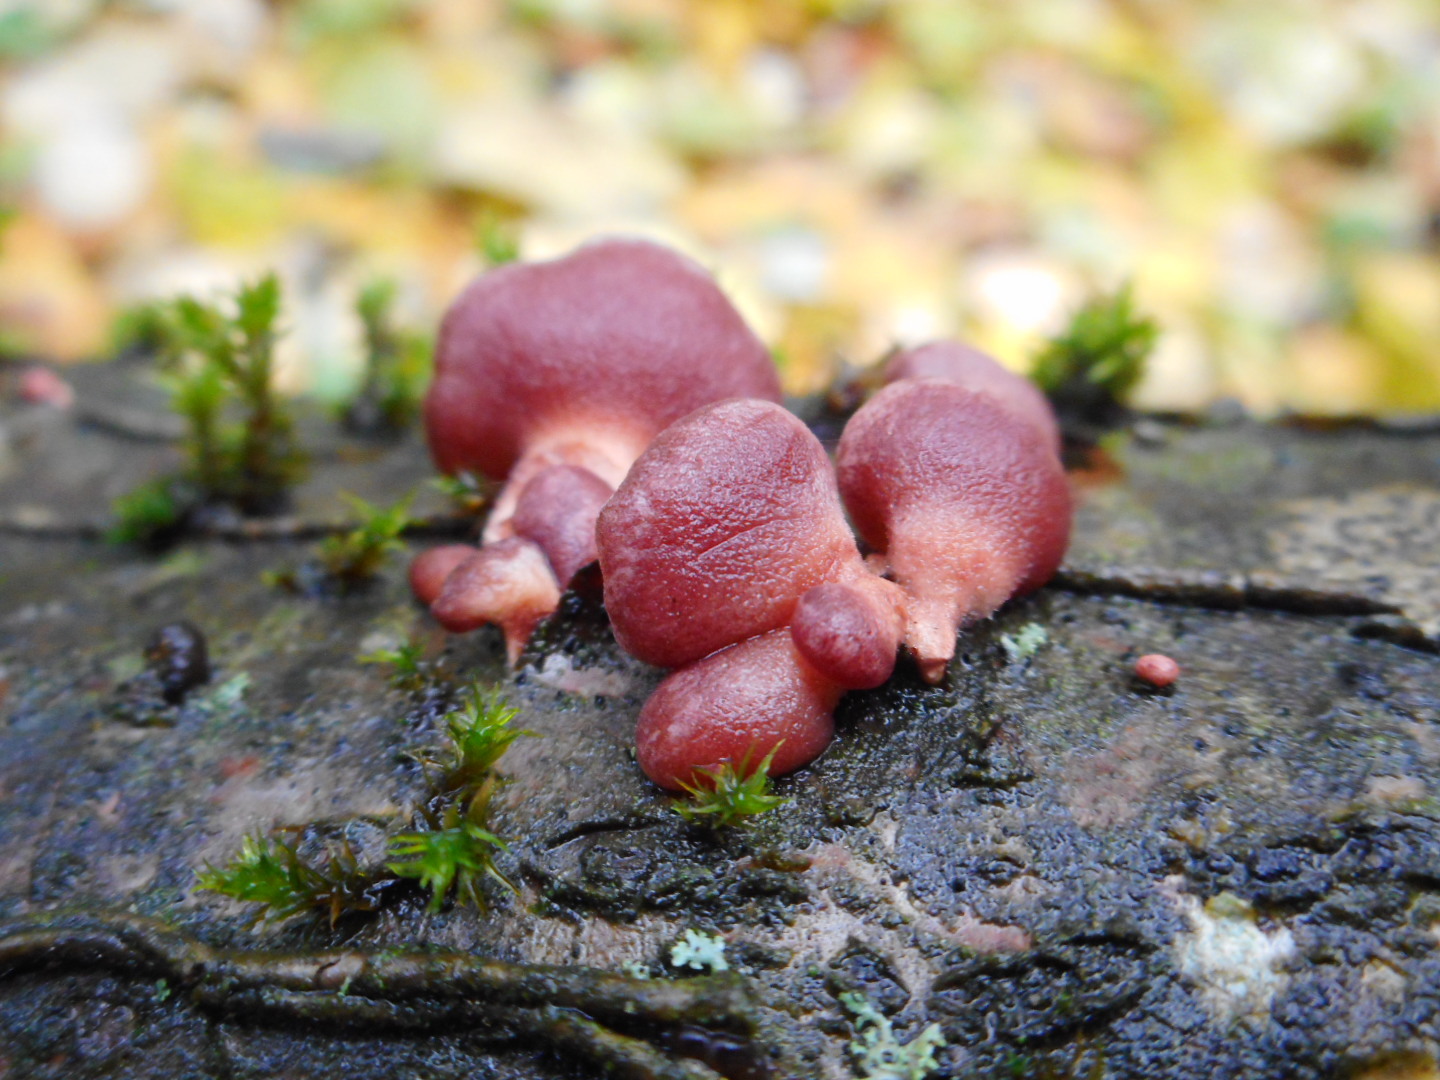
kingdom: Fungi
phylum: Basidiomycota
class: Agaricomycetes
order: Agaricales
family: Mycenaceae
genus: Panellus
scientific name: Panellus ringens
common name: Winter oysterling
